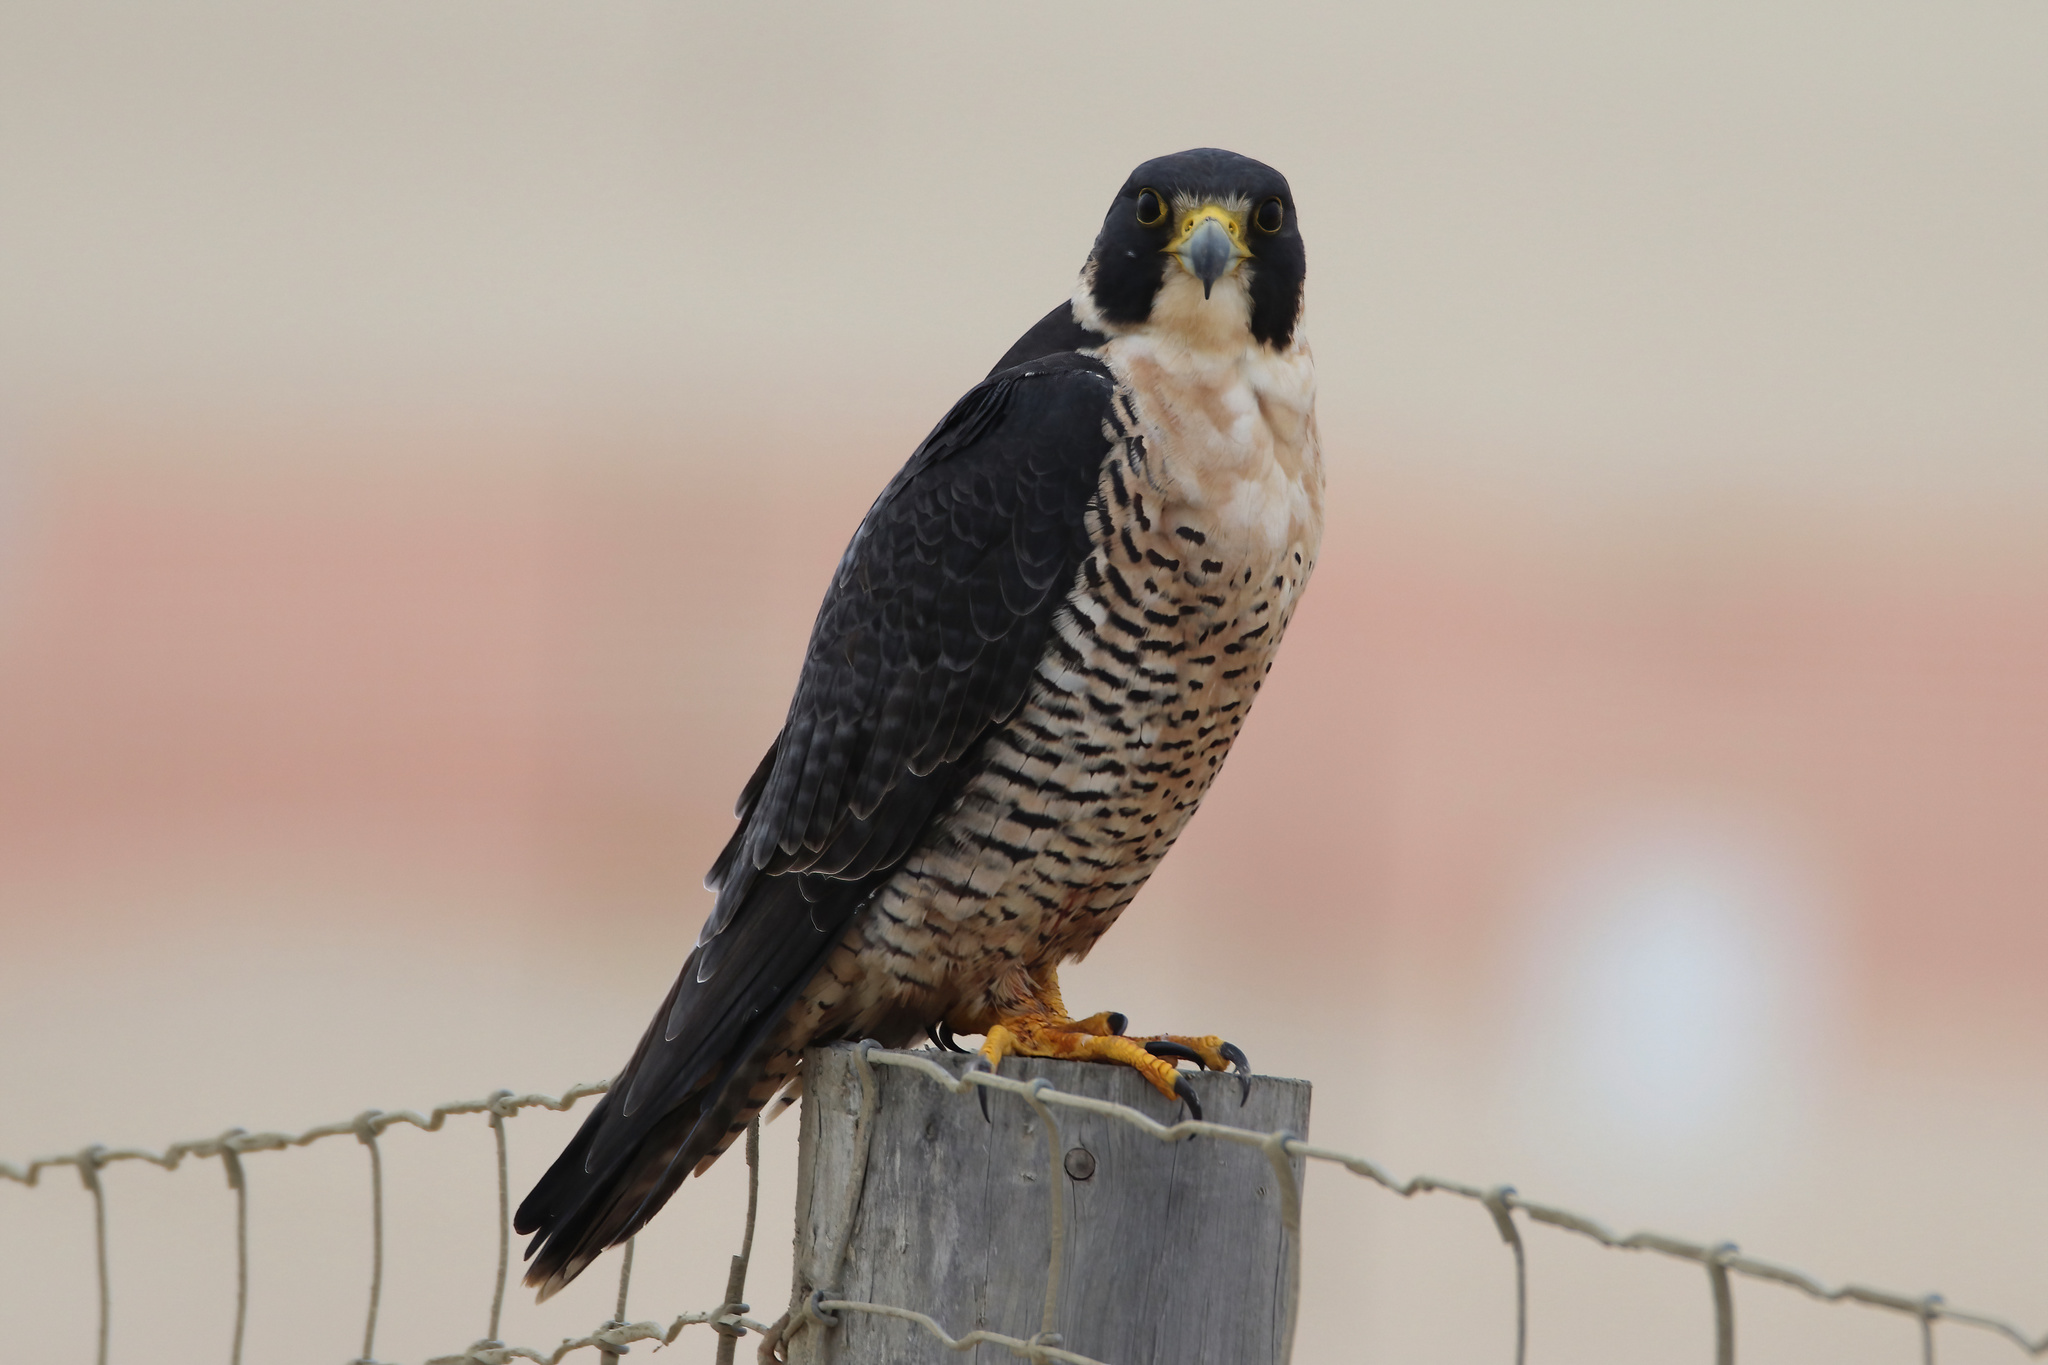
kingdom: Animalia
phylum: Chordata
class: Aves
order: Falconiformes
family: Falconidae
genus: Falco
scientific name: Falco peregrinus
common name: Peregrine falcon
